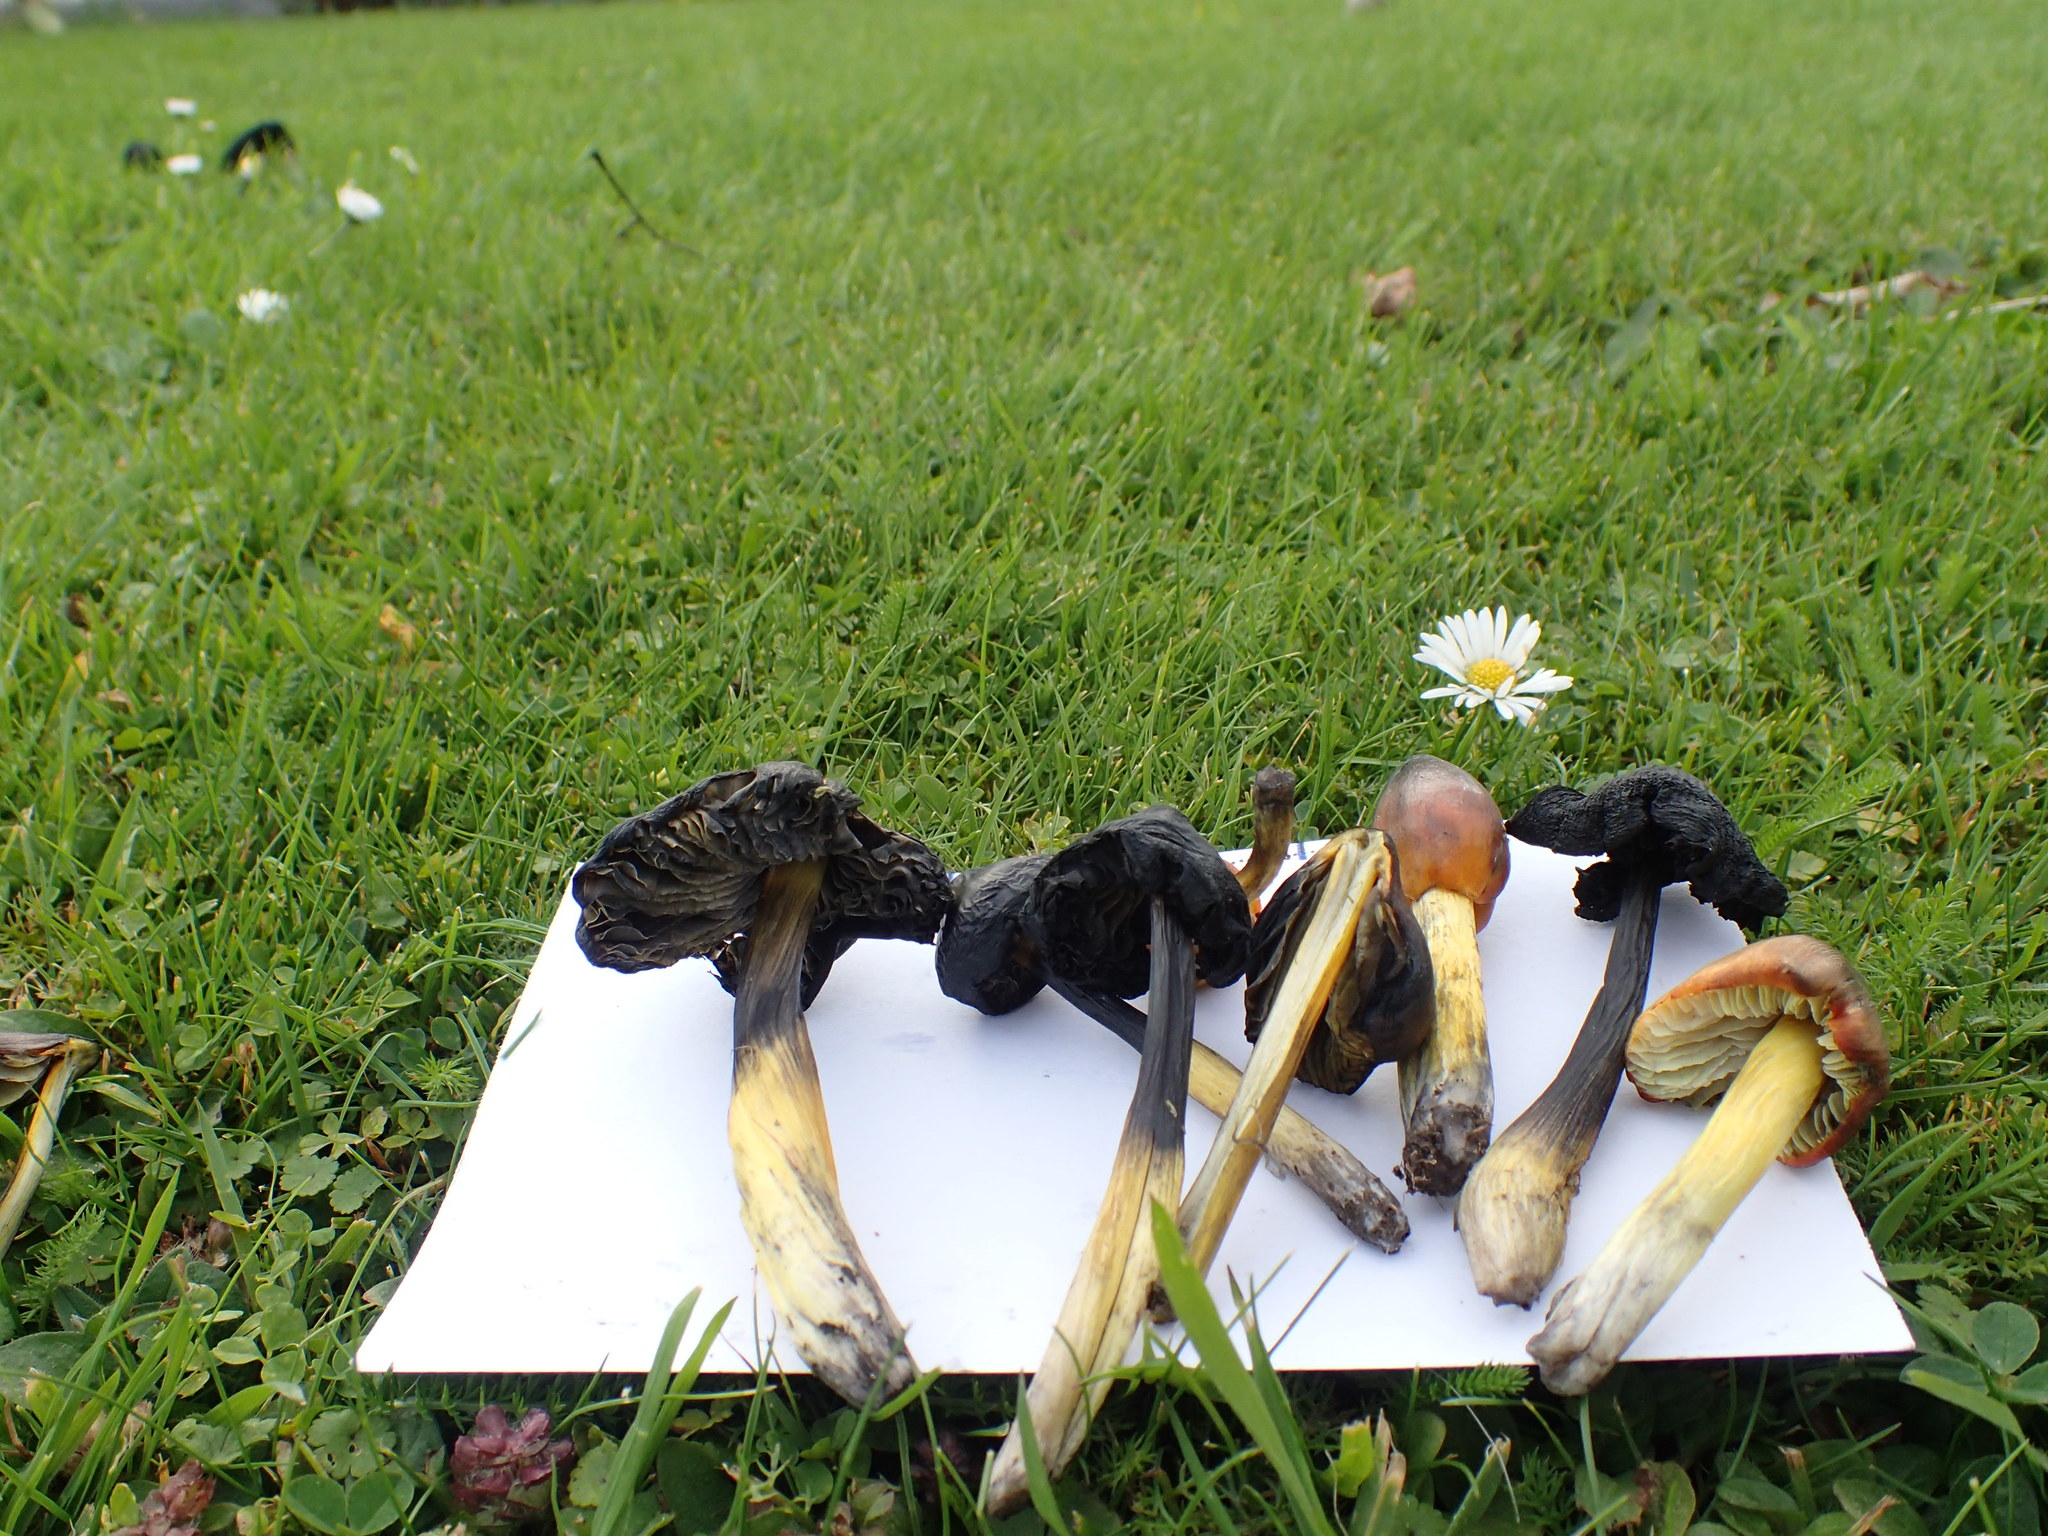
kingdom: Fungi
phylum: Basidiomycota
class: Agaricomycetes
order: Agaricales
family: Hygrophoraceae
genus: Hygrocybe
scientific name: Hygrocybe conica
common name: Blackening wax-cap
